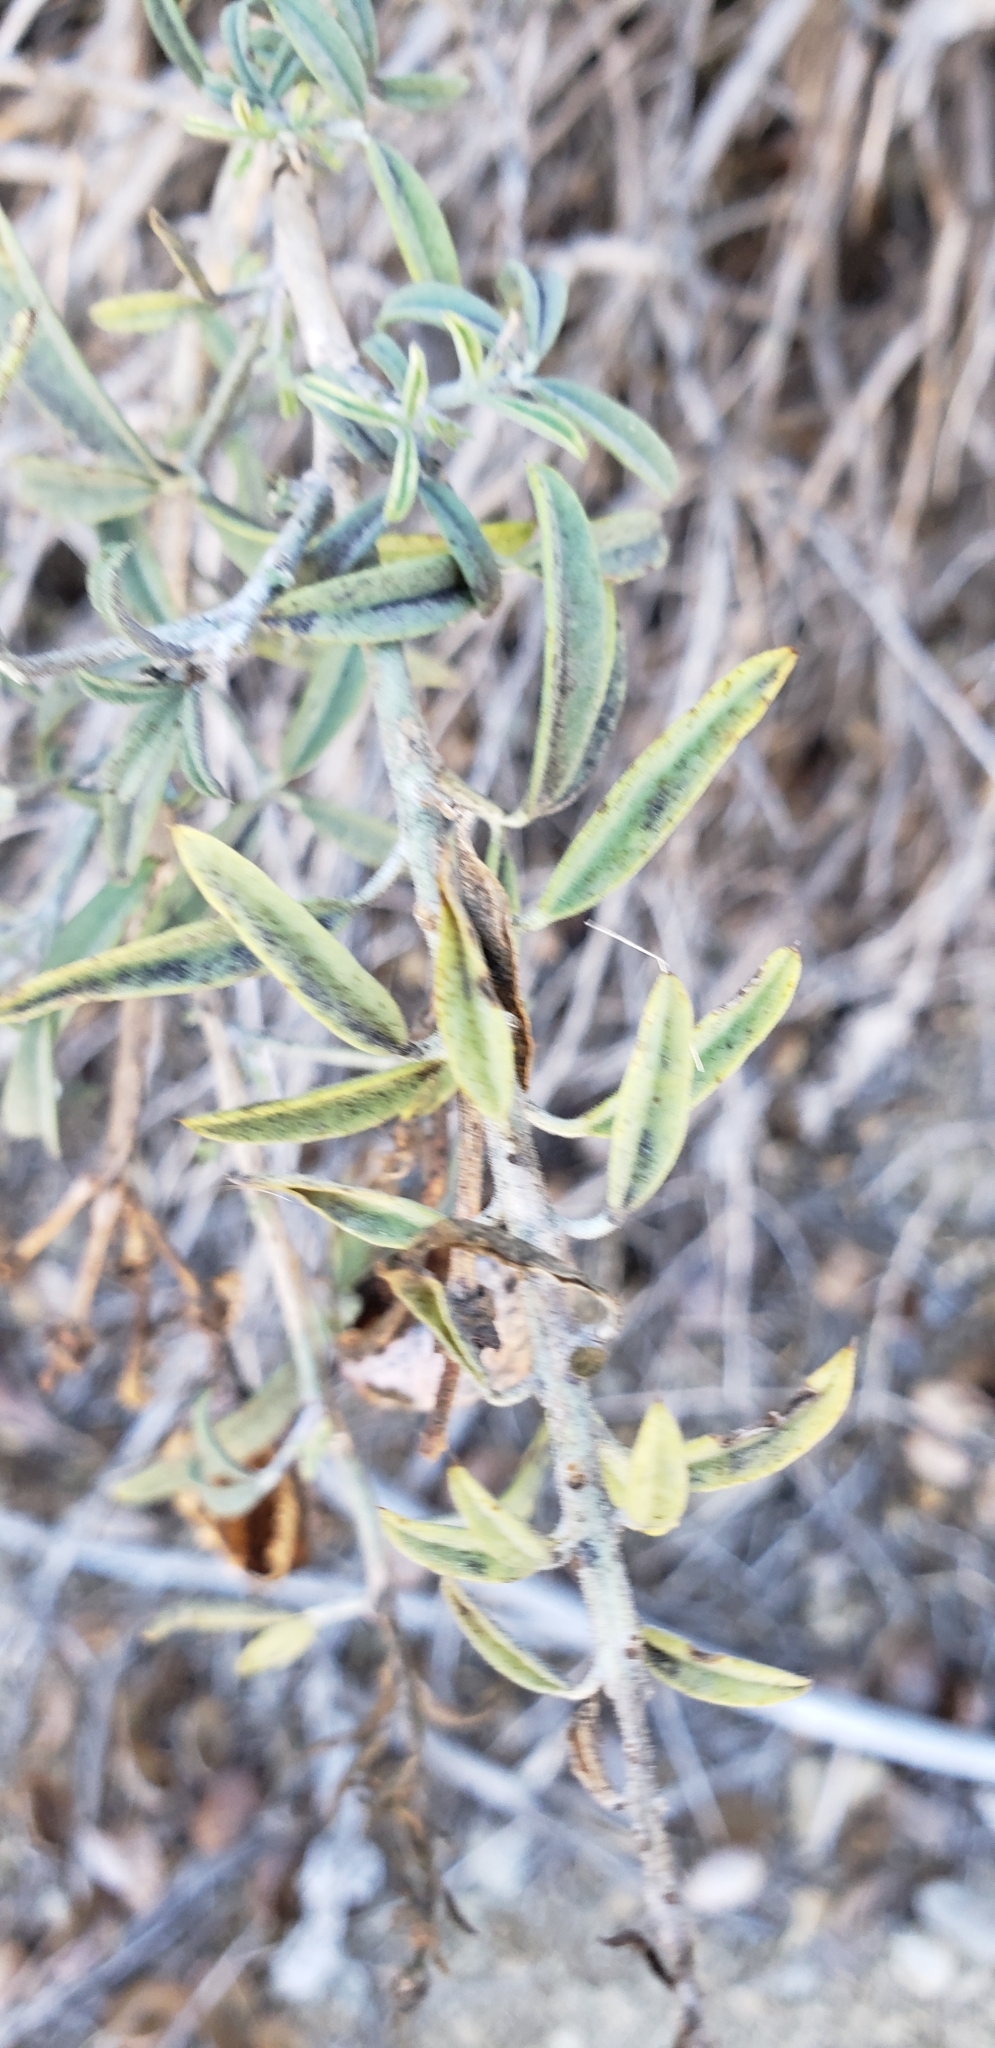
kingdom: Plantae
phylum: Tracheophyta
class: Magnoliopsida
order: Brassicales
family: Cleomaceae
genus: Cleomella
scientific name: Cleomella arborea
